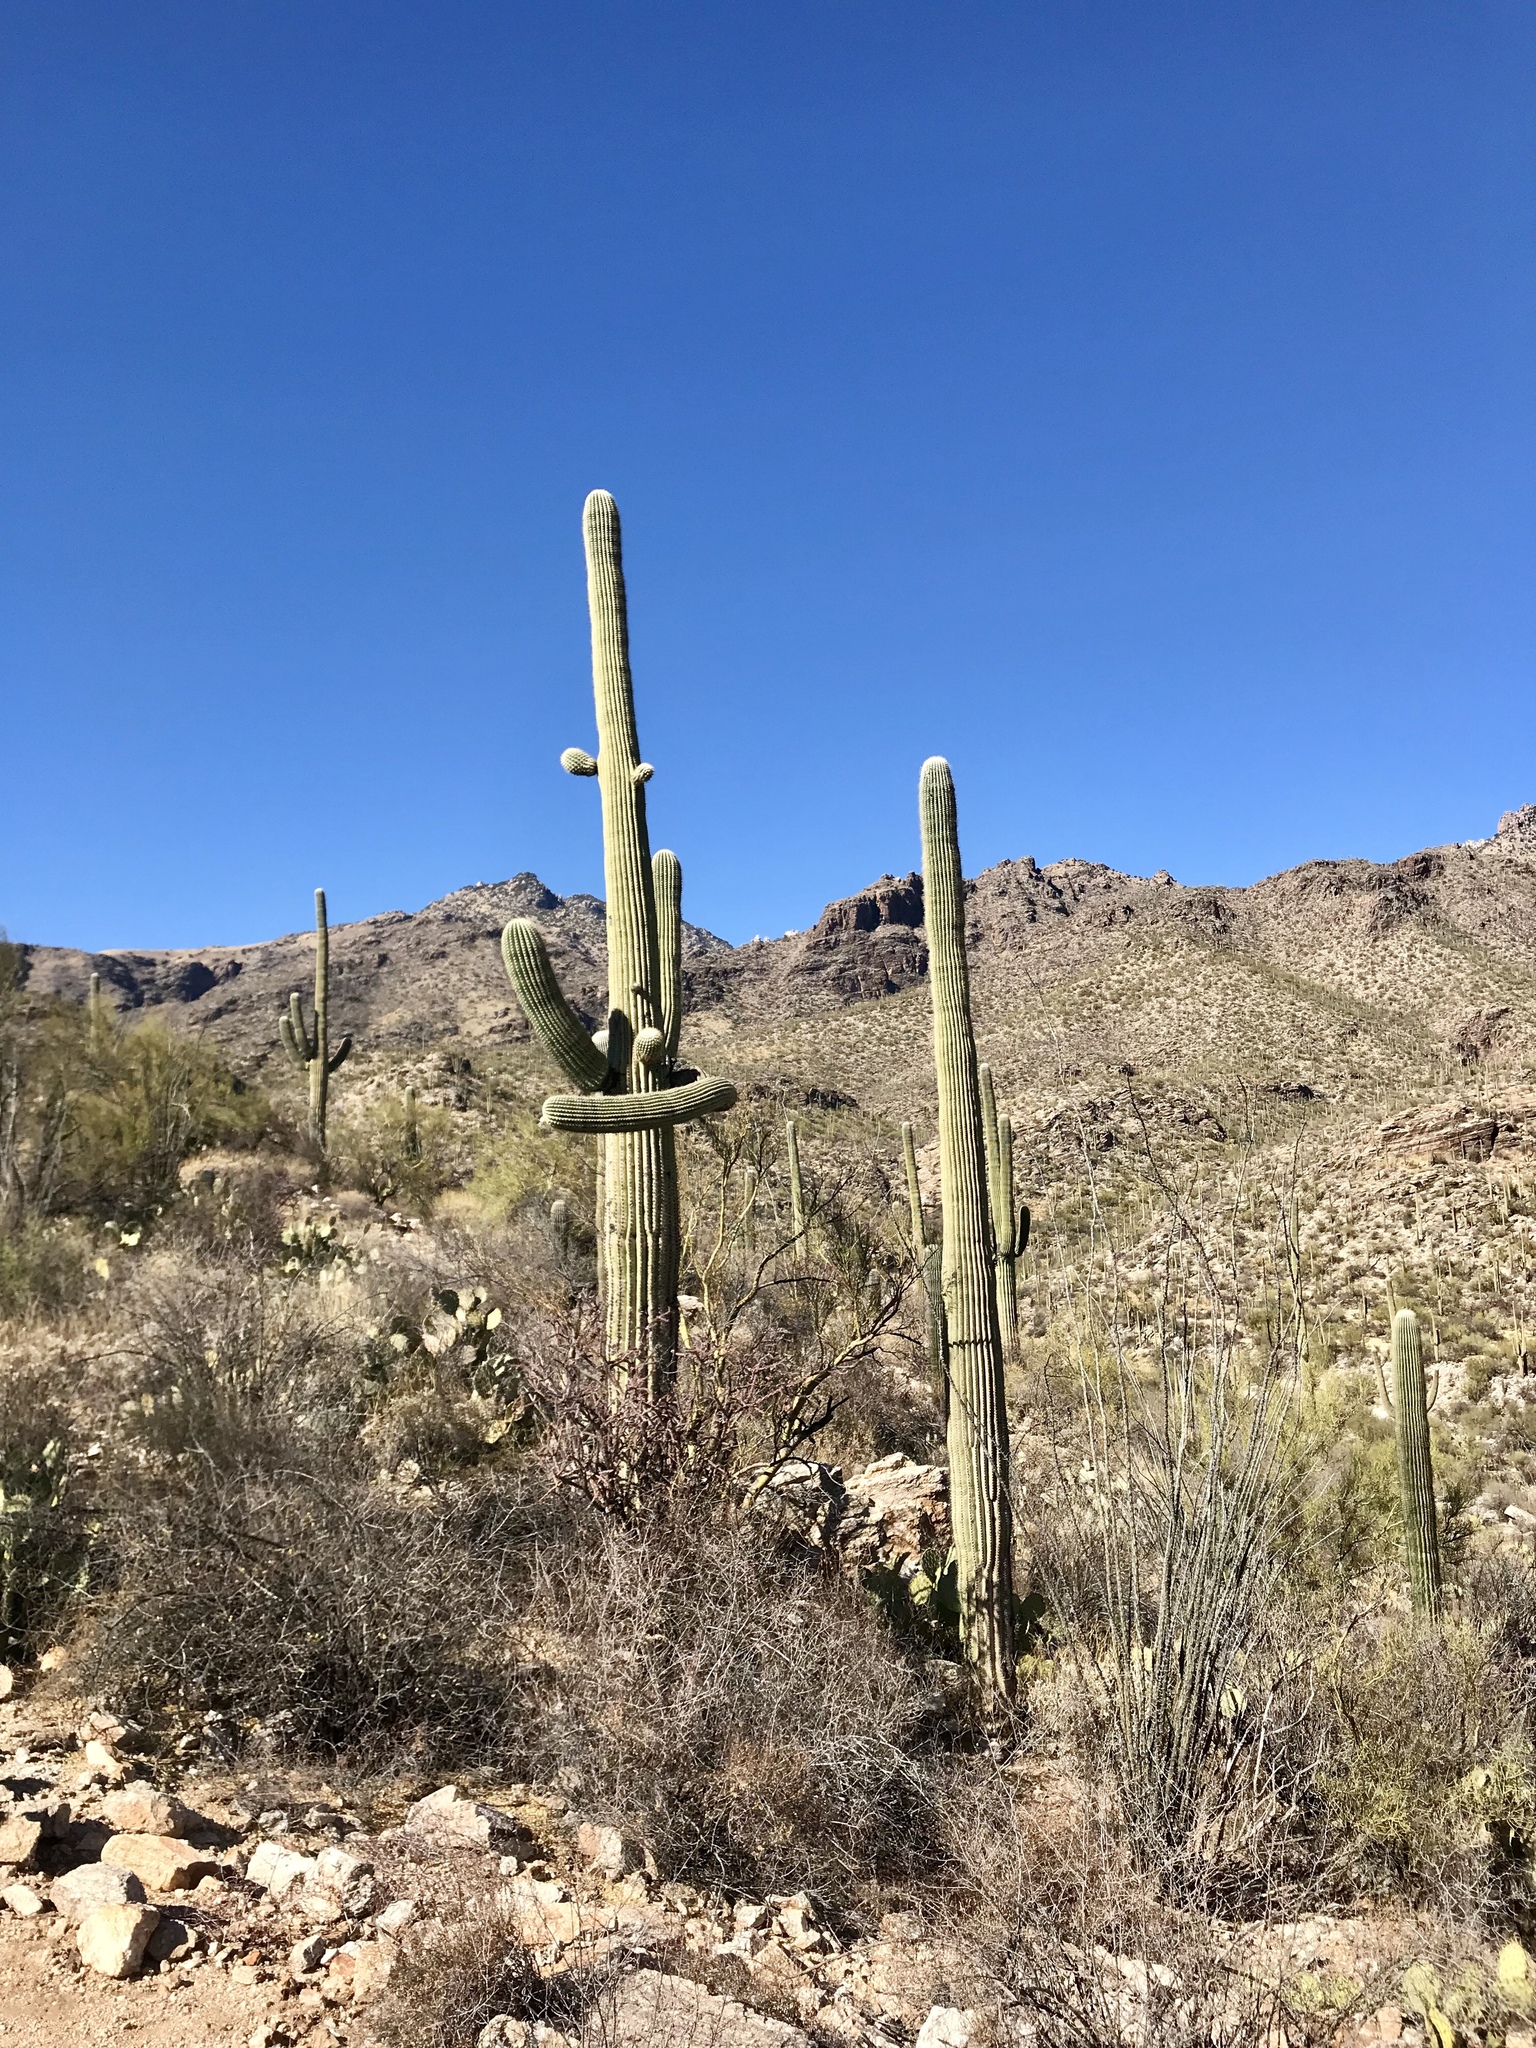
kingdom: Plantae
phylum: Tracheophyta
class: Magnoliopsida
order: Caryophyllales
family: Cactaceae
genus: Carnegiea
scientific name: Carnegiea gigantea
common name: Saguaro
